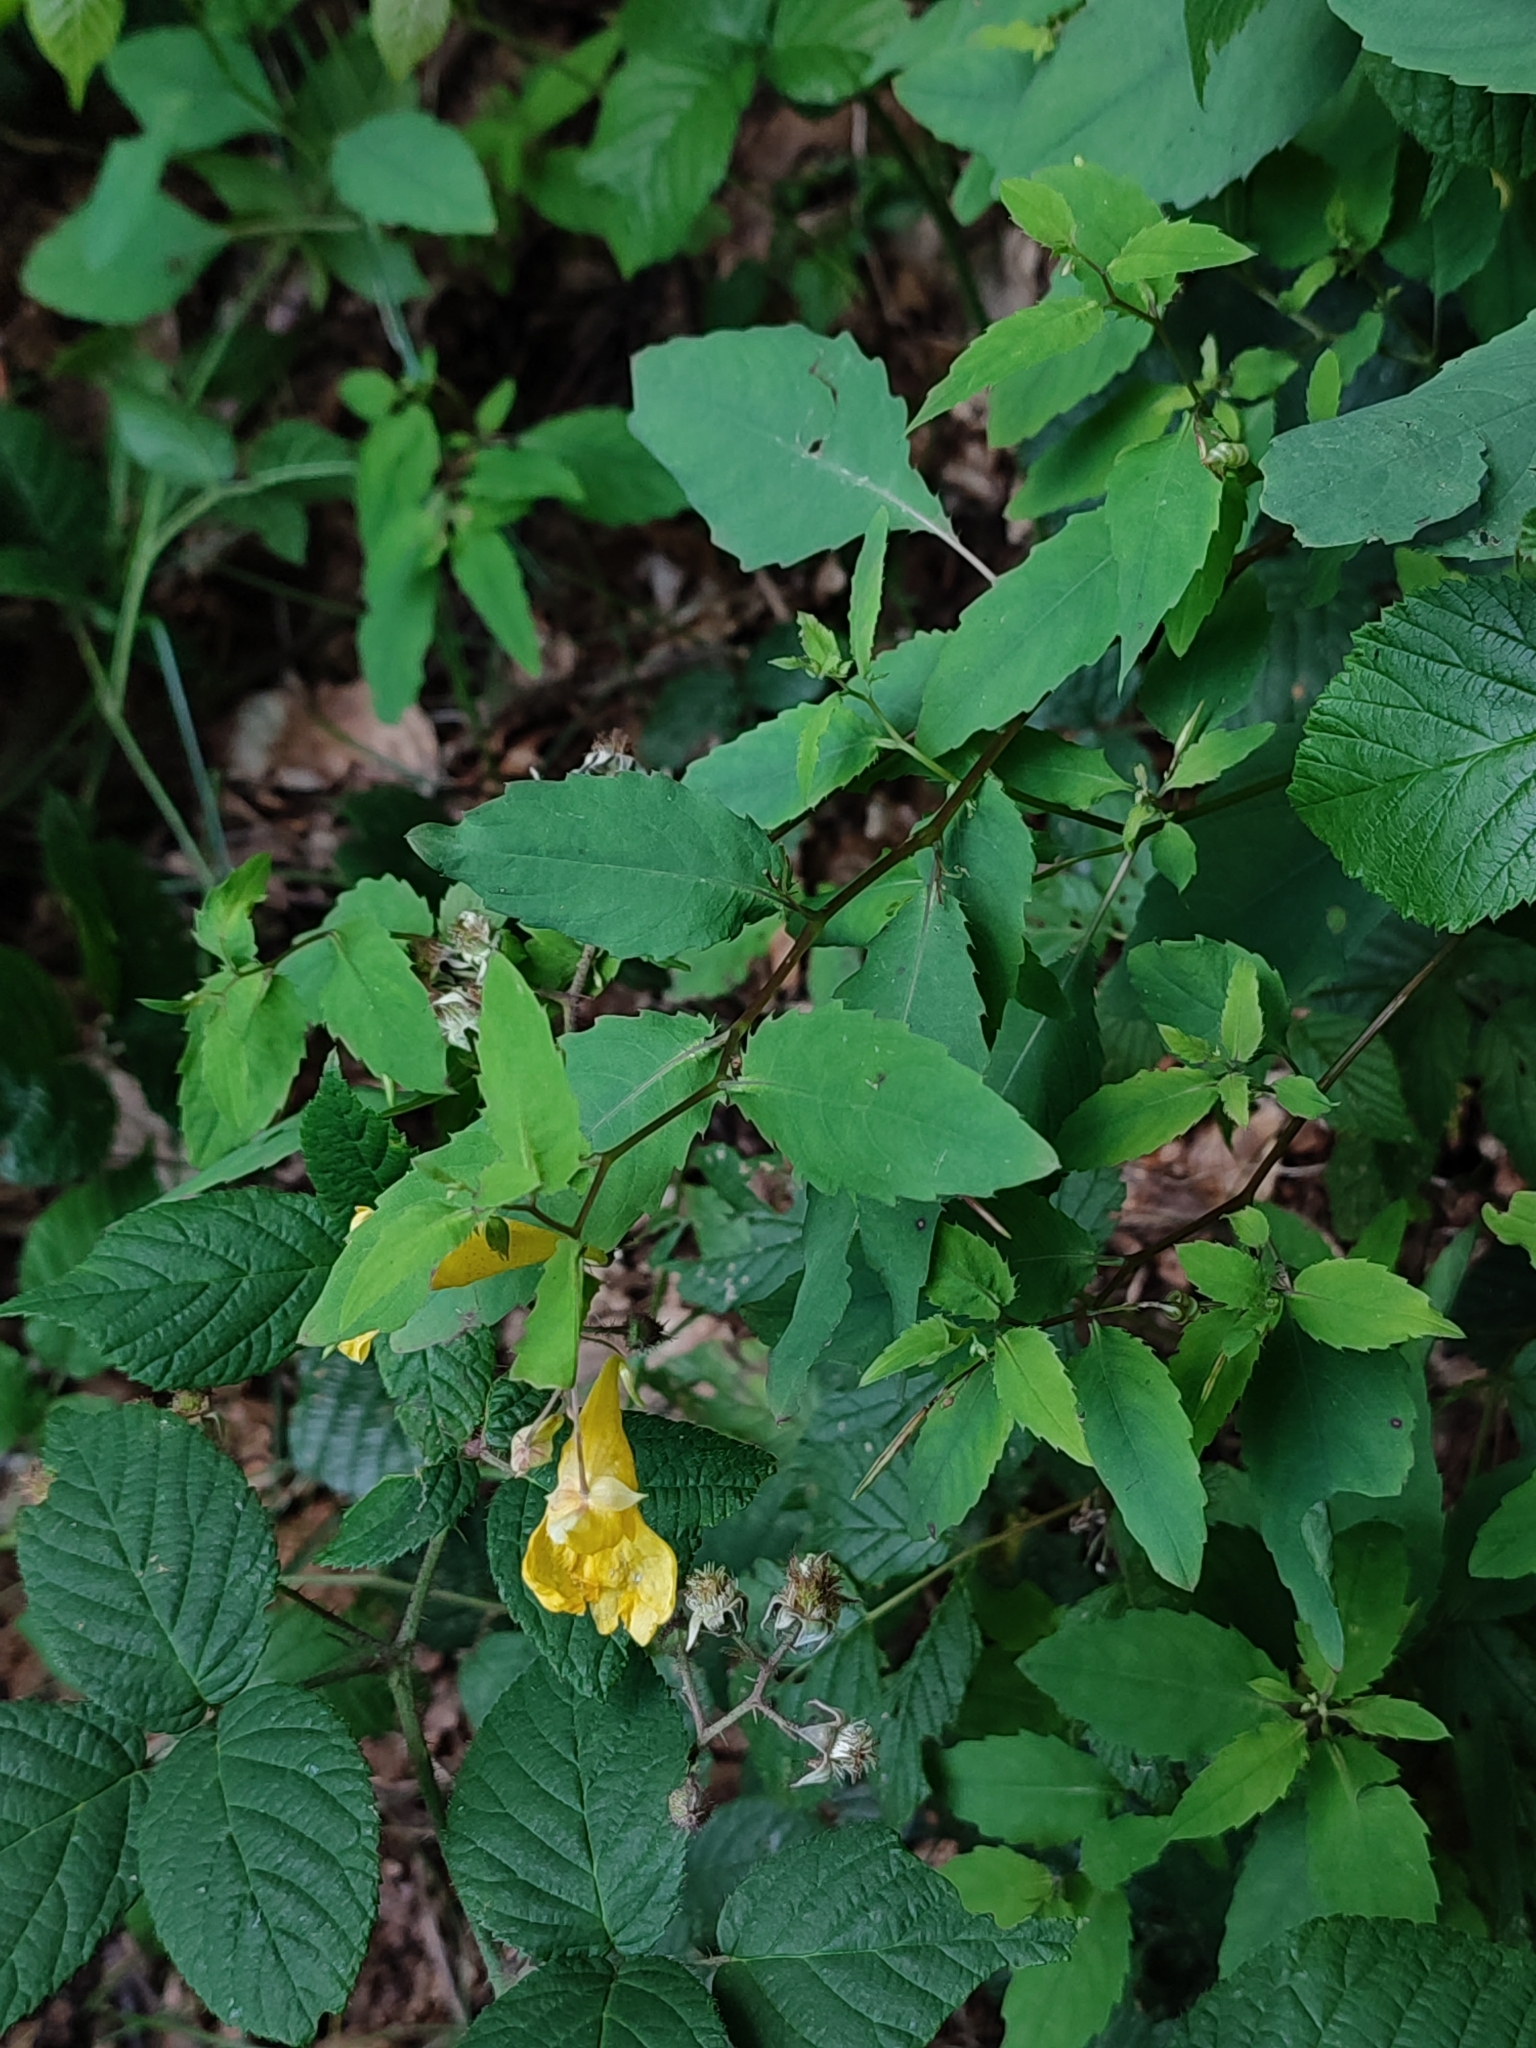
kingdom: Plantae
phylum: Tracheophyta
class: Magnoliopsida
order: Ericales
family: Balsaminaceae
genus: Impatiens
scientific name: Impatiens noli-tangere
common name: Touch-me-not balsam
